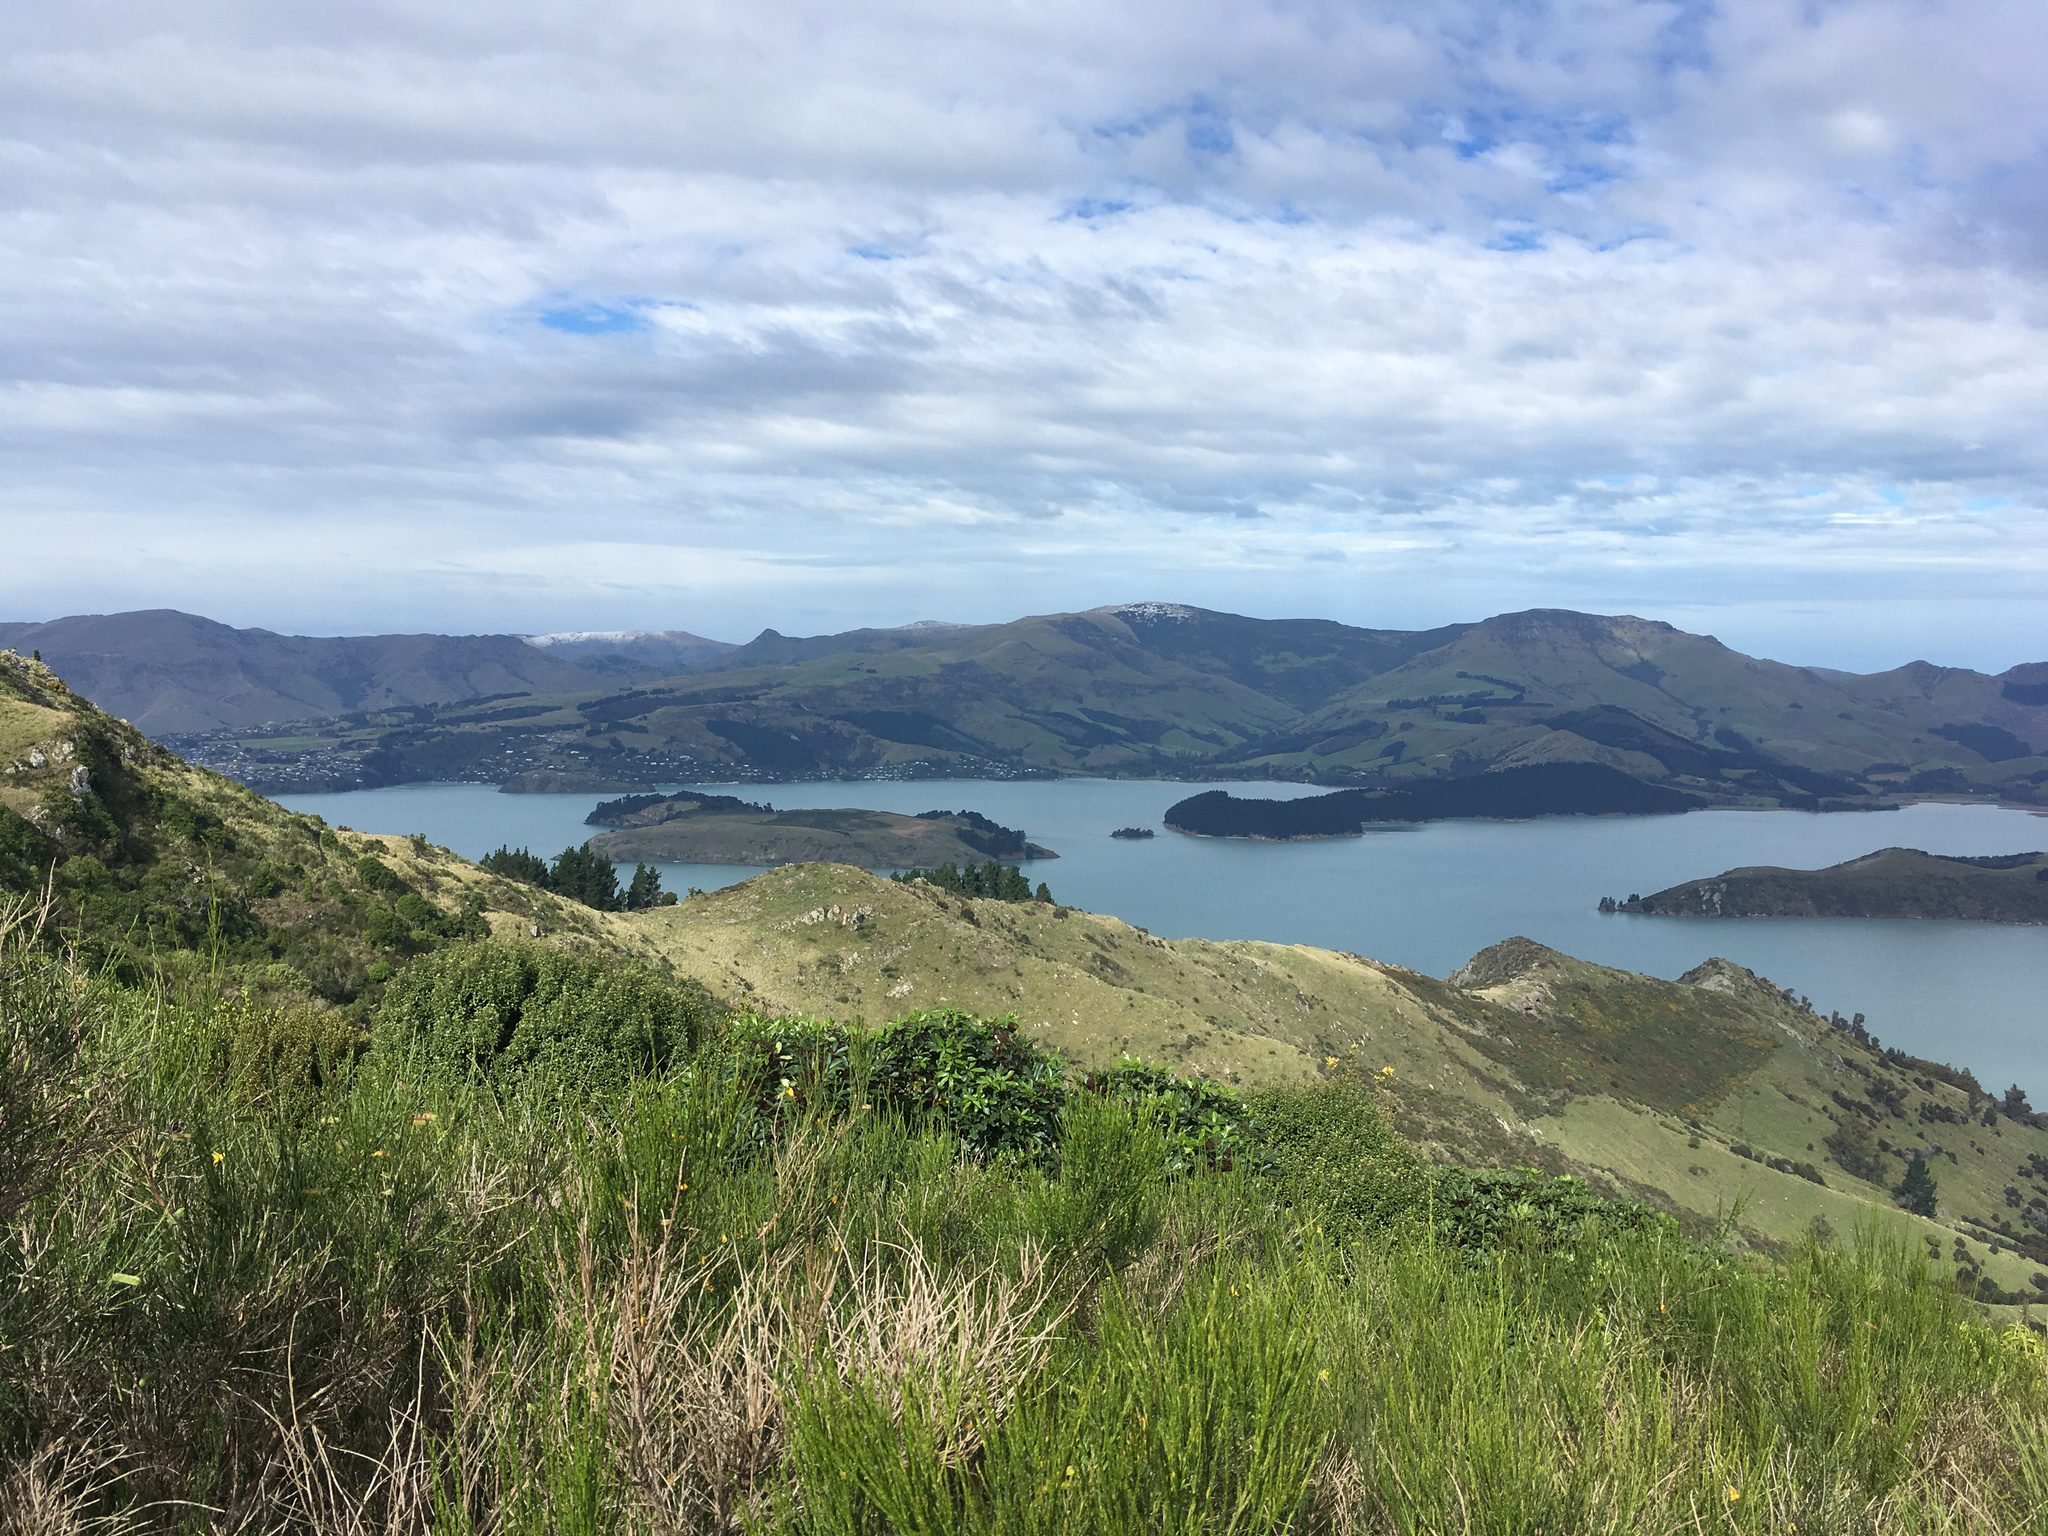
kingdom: Plantae
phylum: Tracheophyta
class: Magnoliopsida
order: Fabales
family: Fabaceae
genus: Cytisus
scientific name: Cytisus scoparius
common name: Scotch broom
